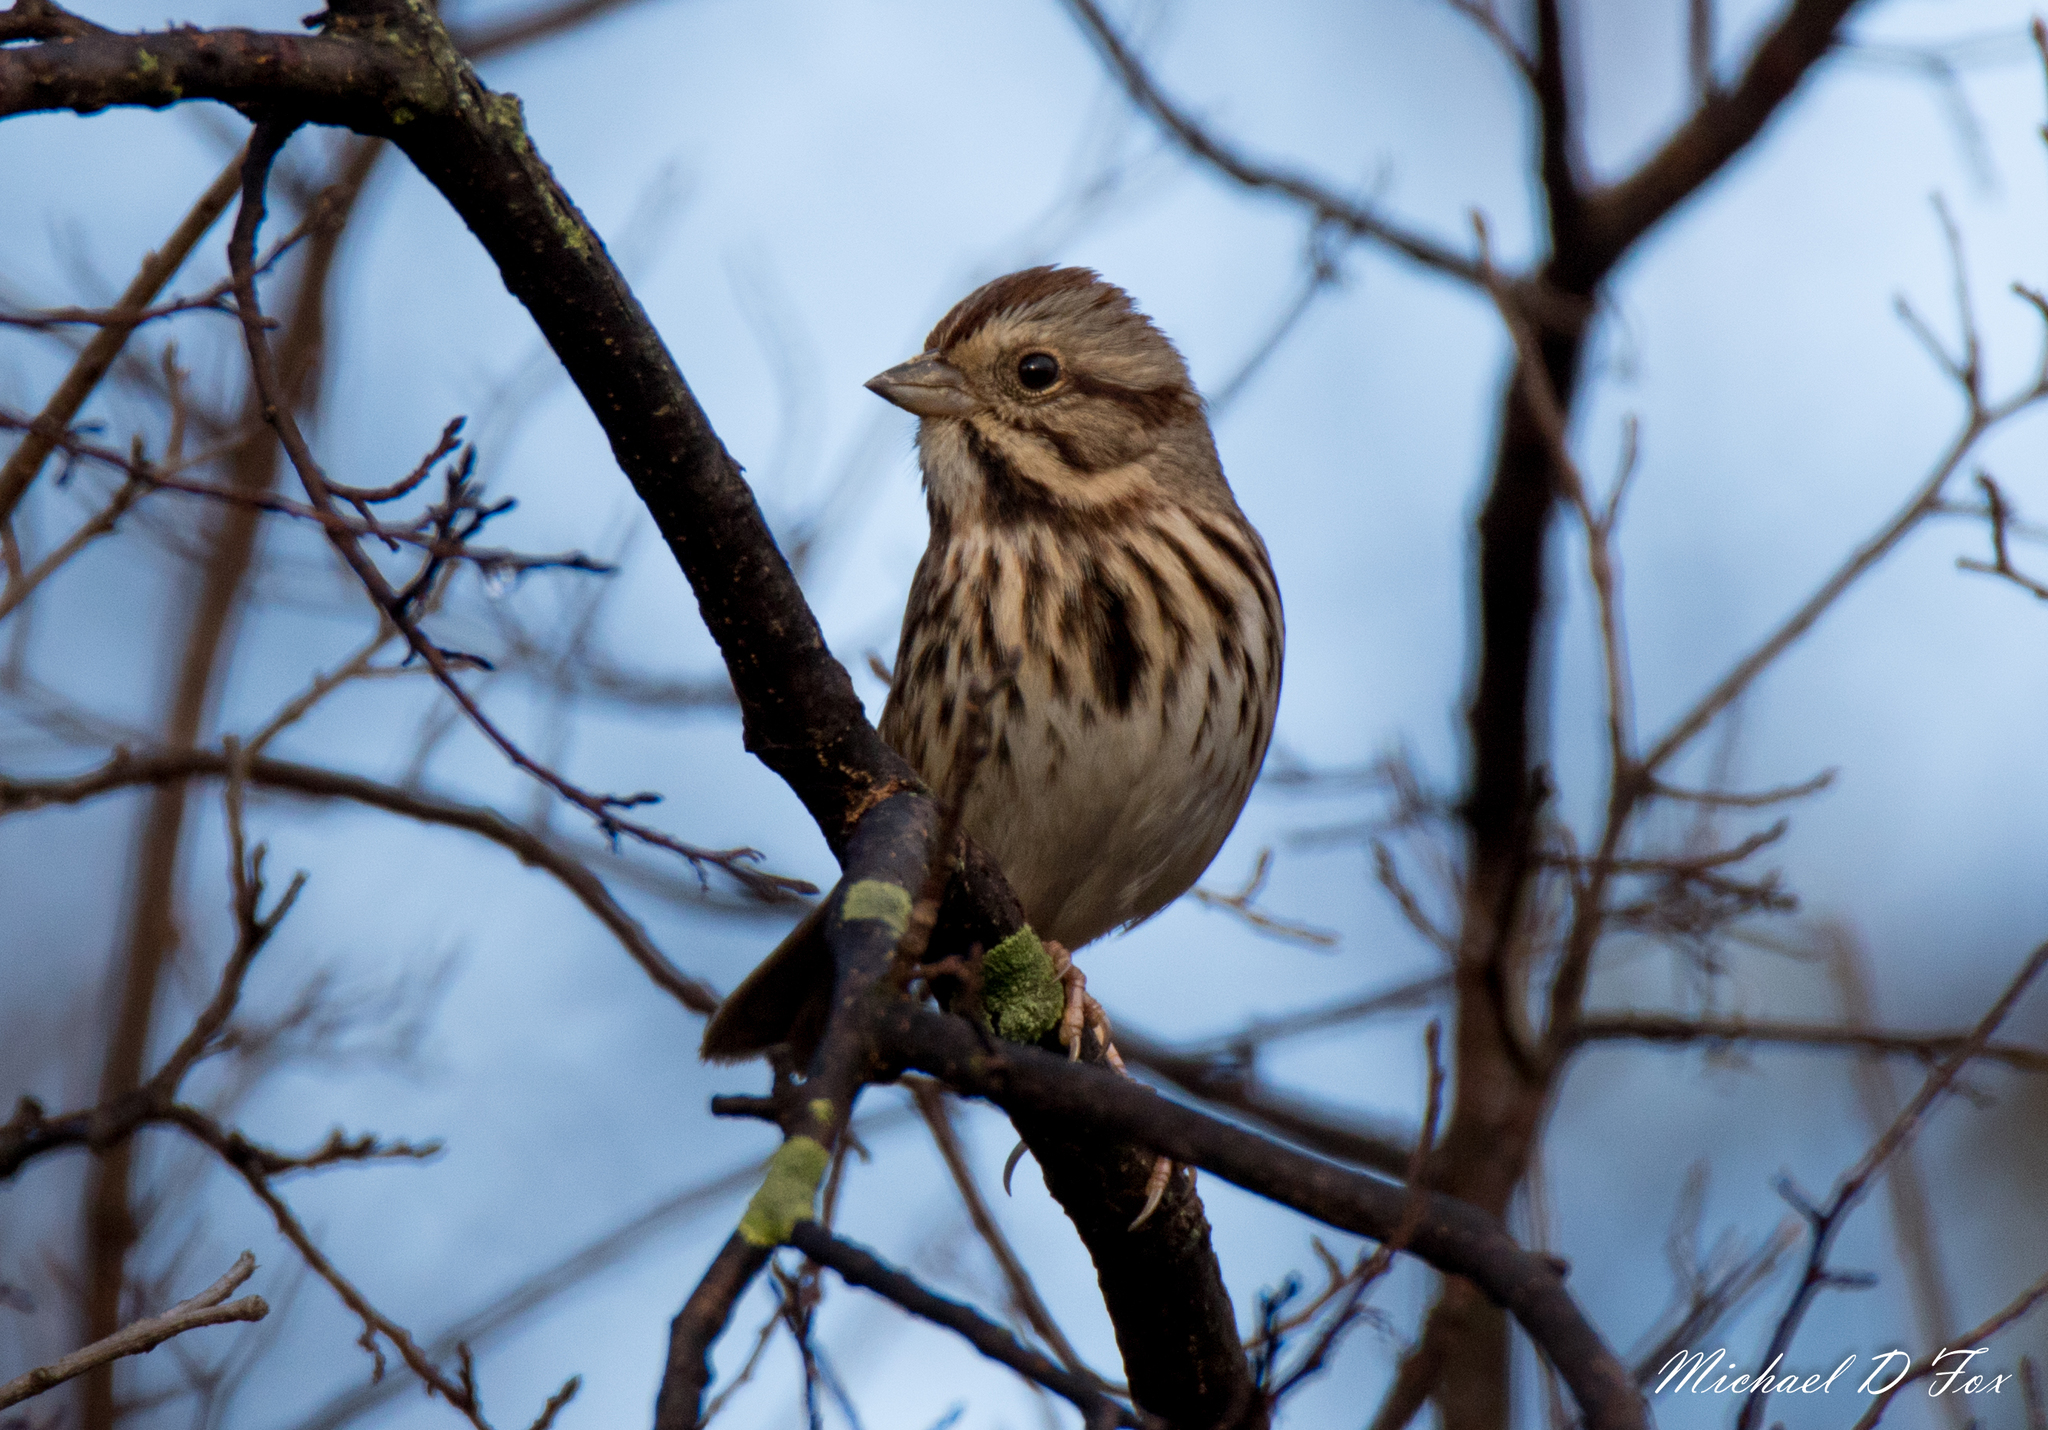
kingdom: Animalia
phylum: Chordata
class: Aves
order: Passeriformes
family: Passerellidae
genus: Melospiza
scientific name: Melospiza melodia
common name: Song sparrow
